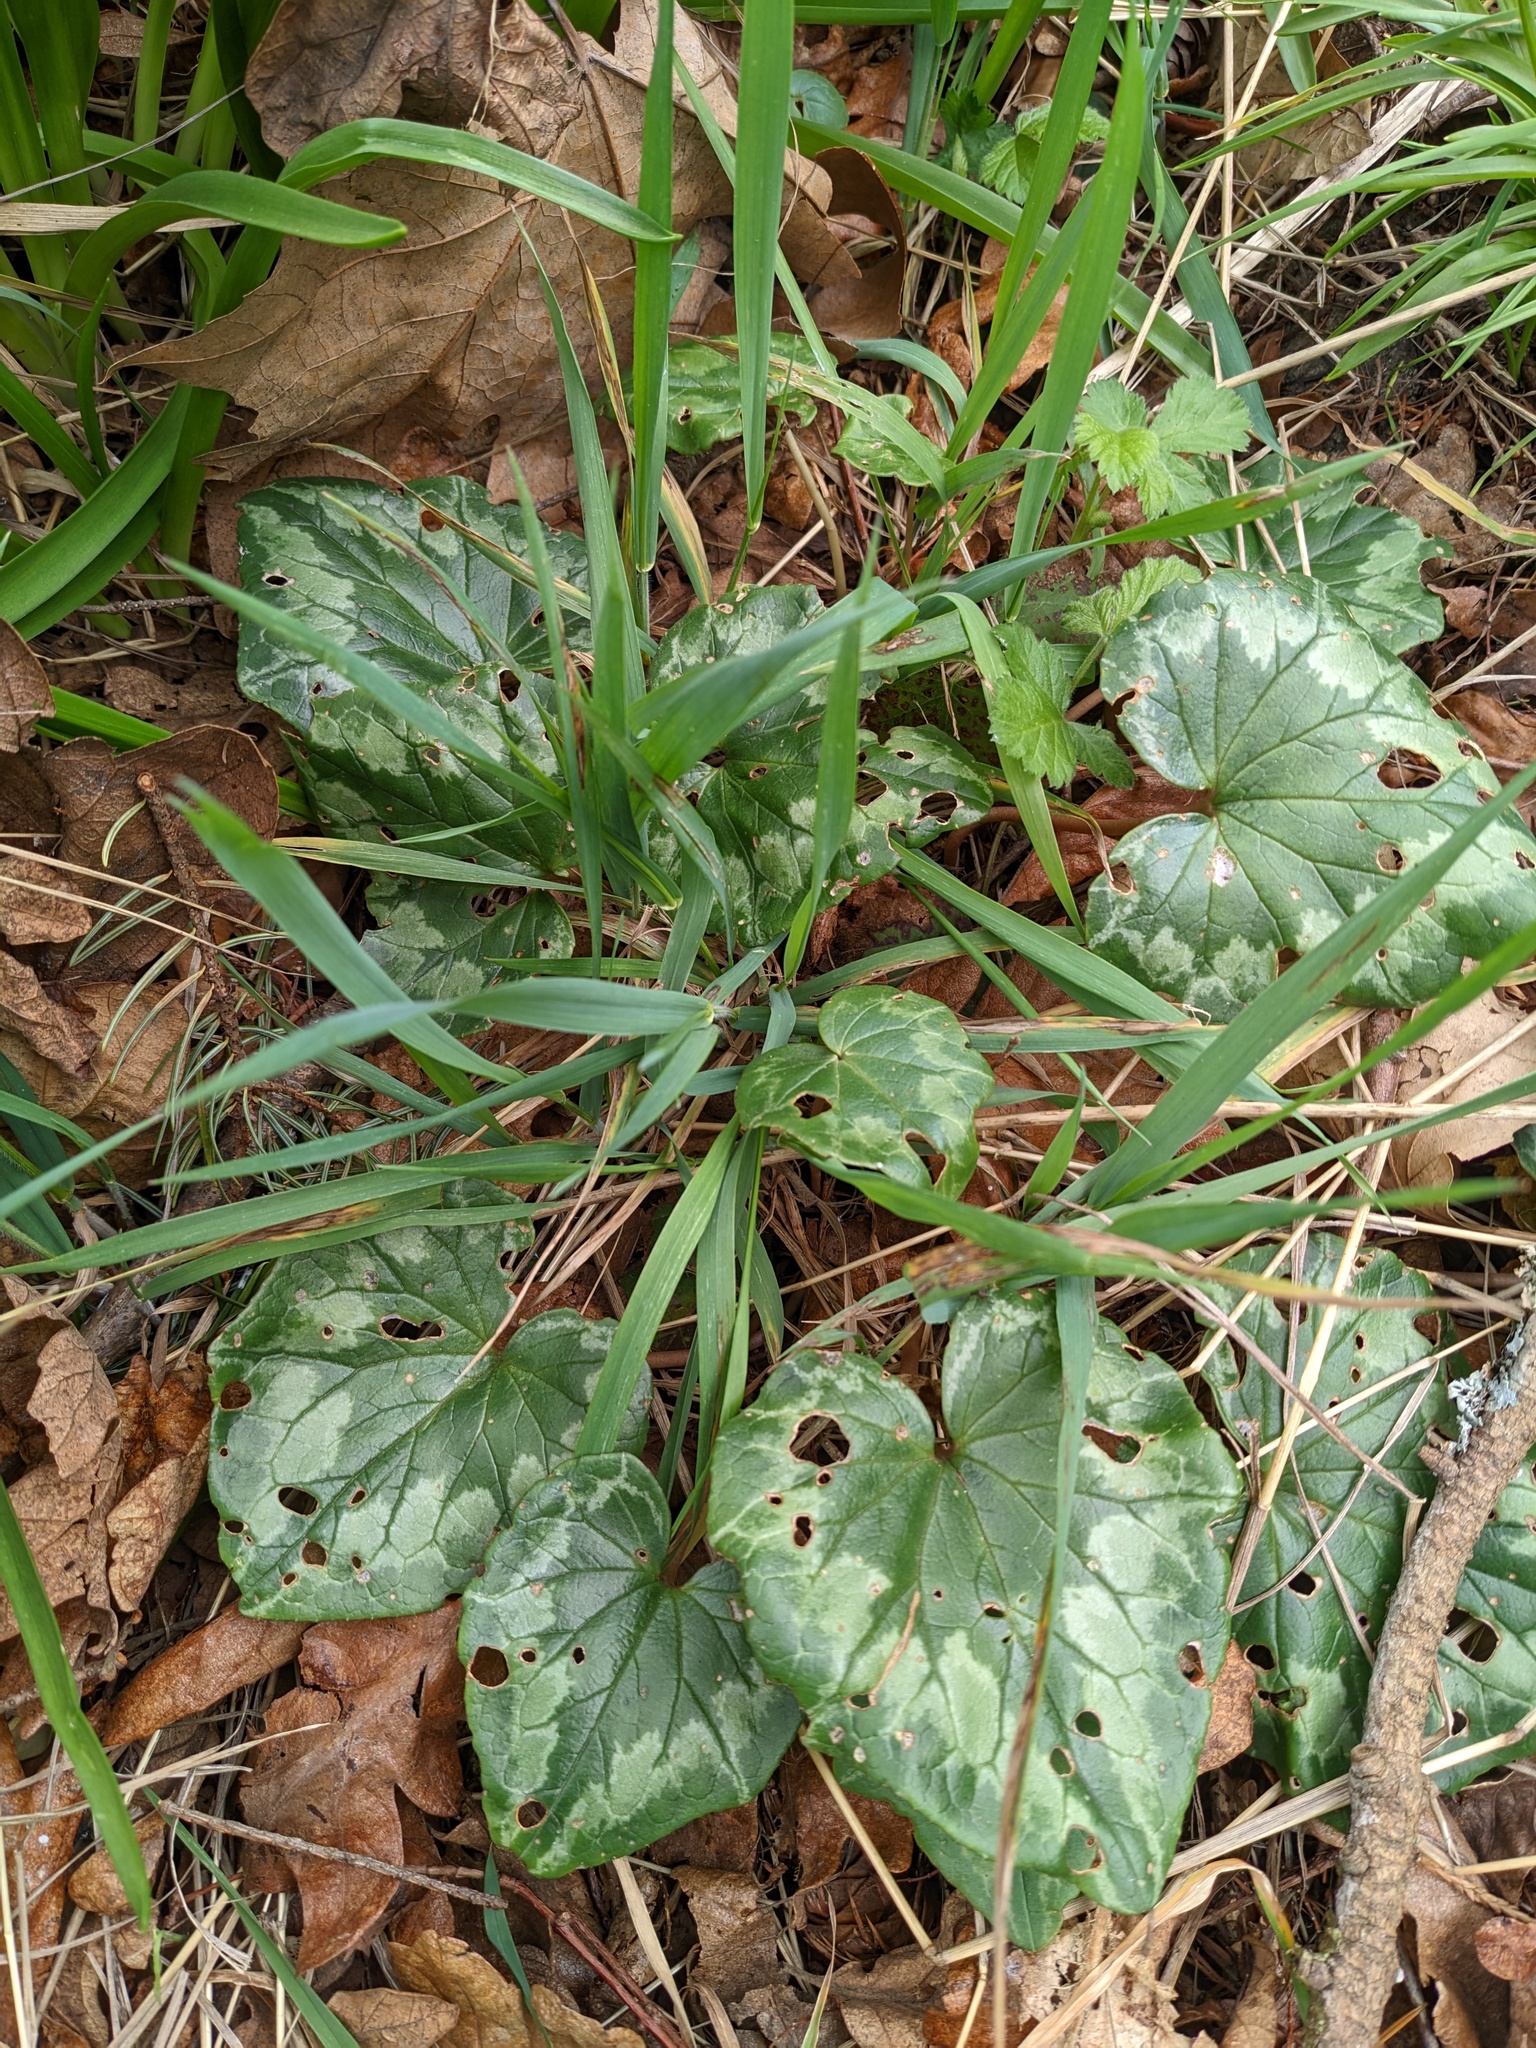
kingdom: Plantae
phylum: Tracheophyta
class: Magnoliopsida
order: Ericales
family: Primulaceae
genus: Cyclamen
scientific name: Cyclamen hederifolium
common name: Sowbread
